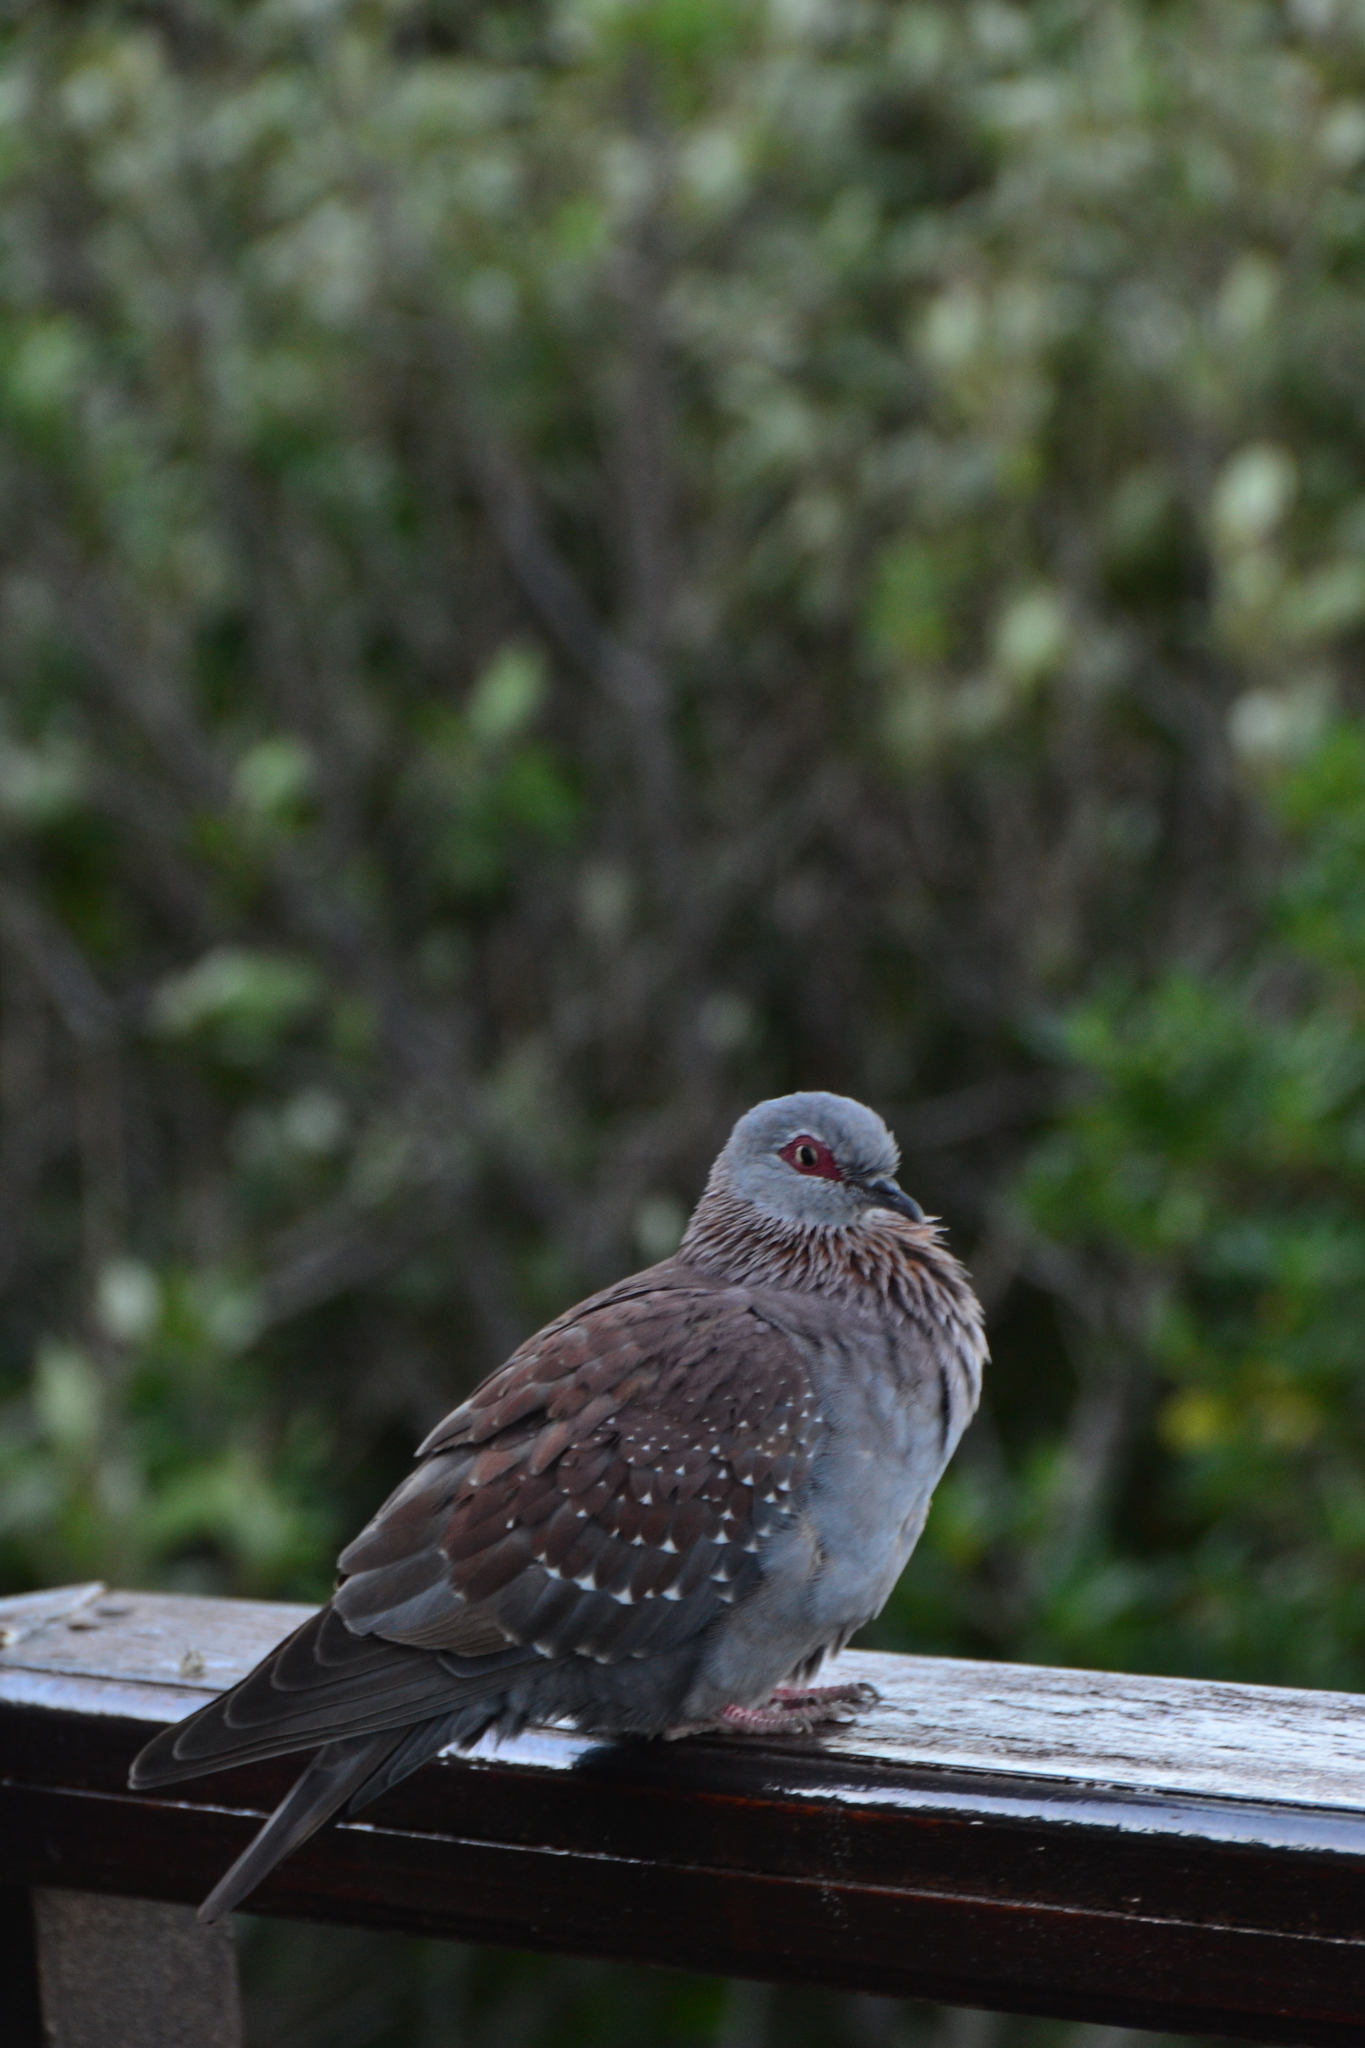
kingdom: Animalia
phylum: Chordata
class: Aves
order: Columbiformes
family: Columbidae
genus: Columba
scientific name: Columba guinea
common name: Speckled pigeon
